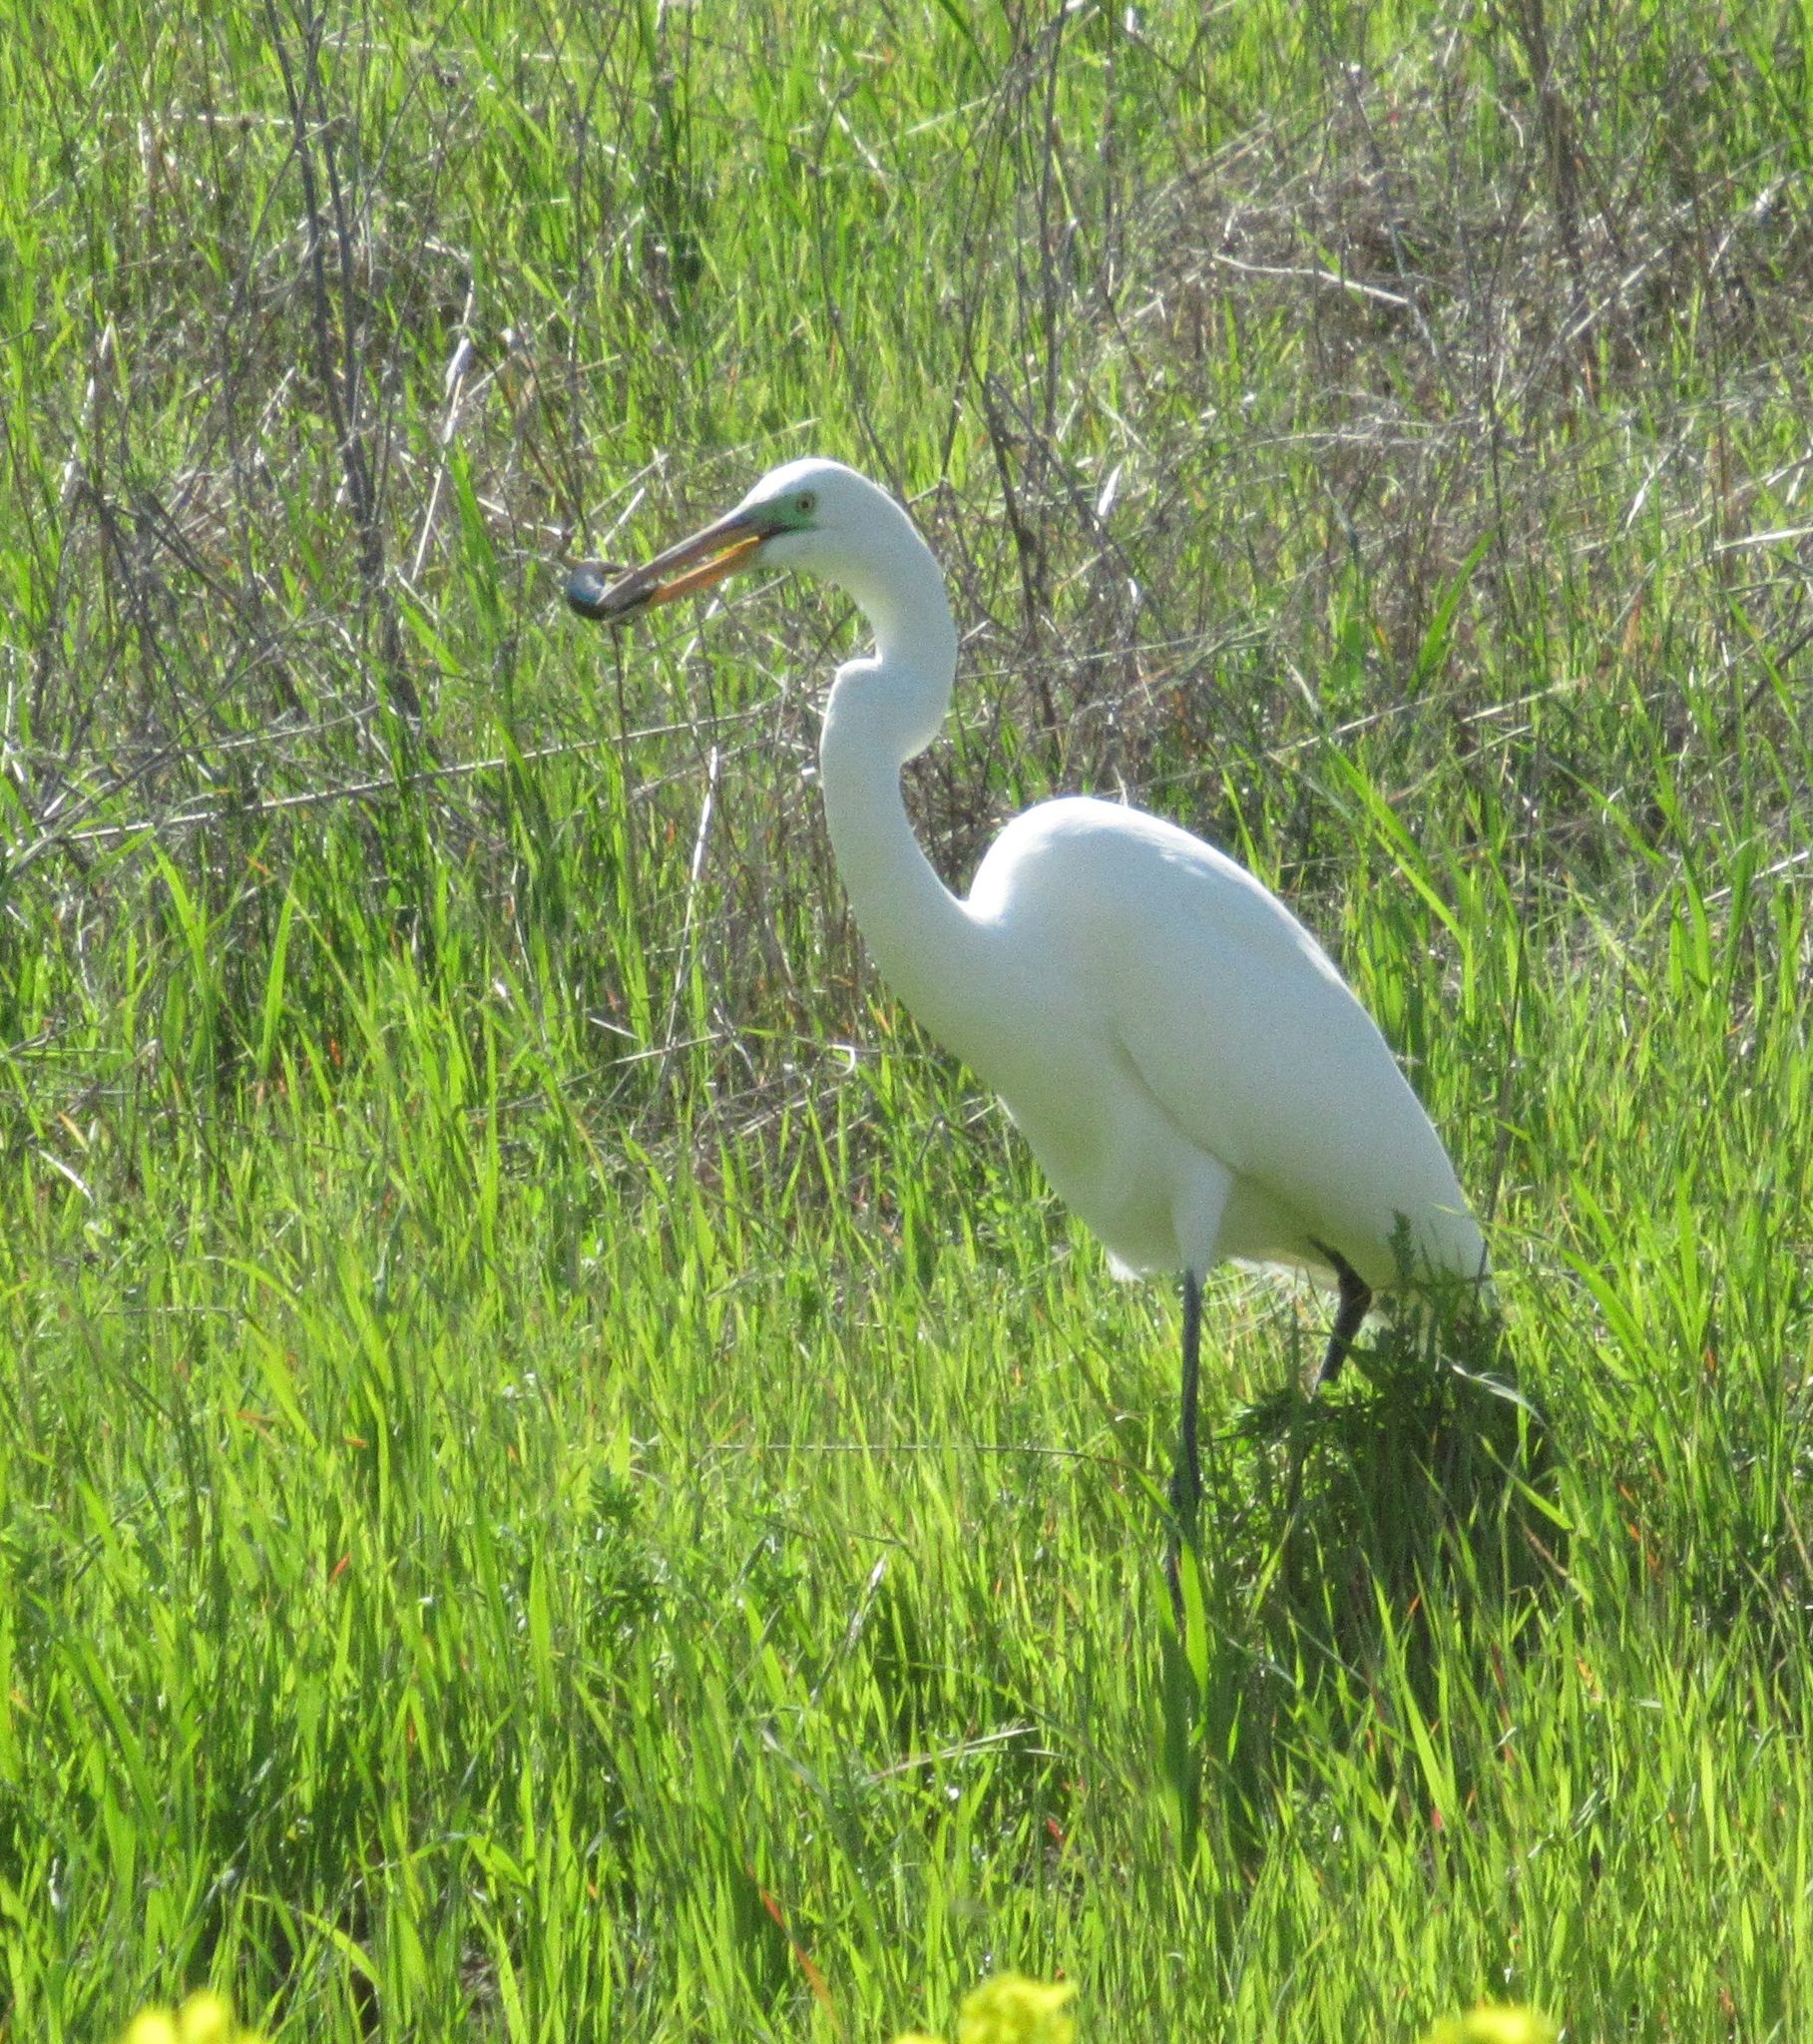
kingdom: Animalia
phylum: Chordata
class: Aves
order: Pelecaniformes
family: Ardeidae
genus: Ardea
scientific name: Ardea alba
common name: Great egret
